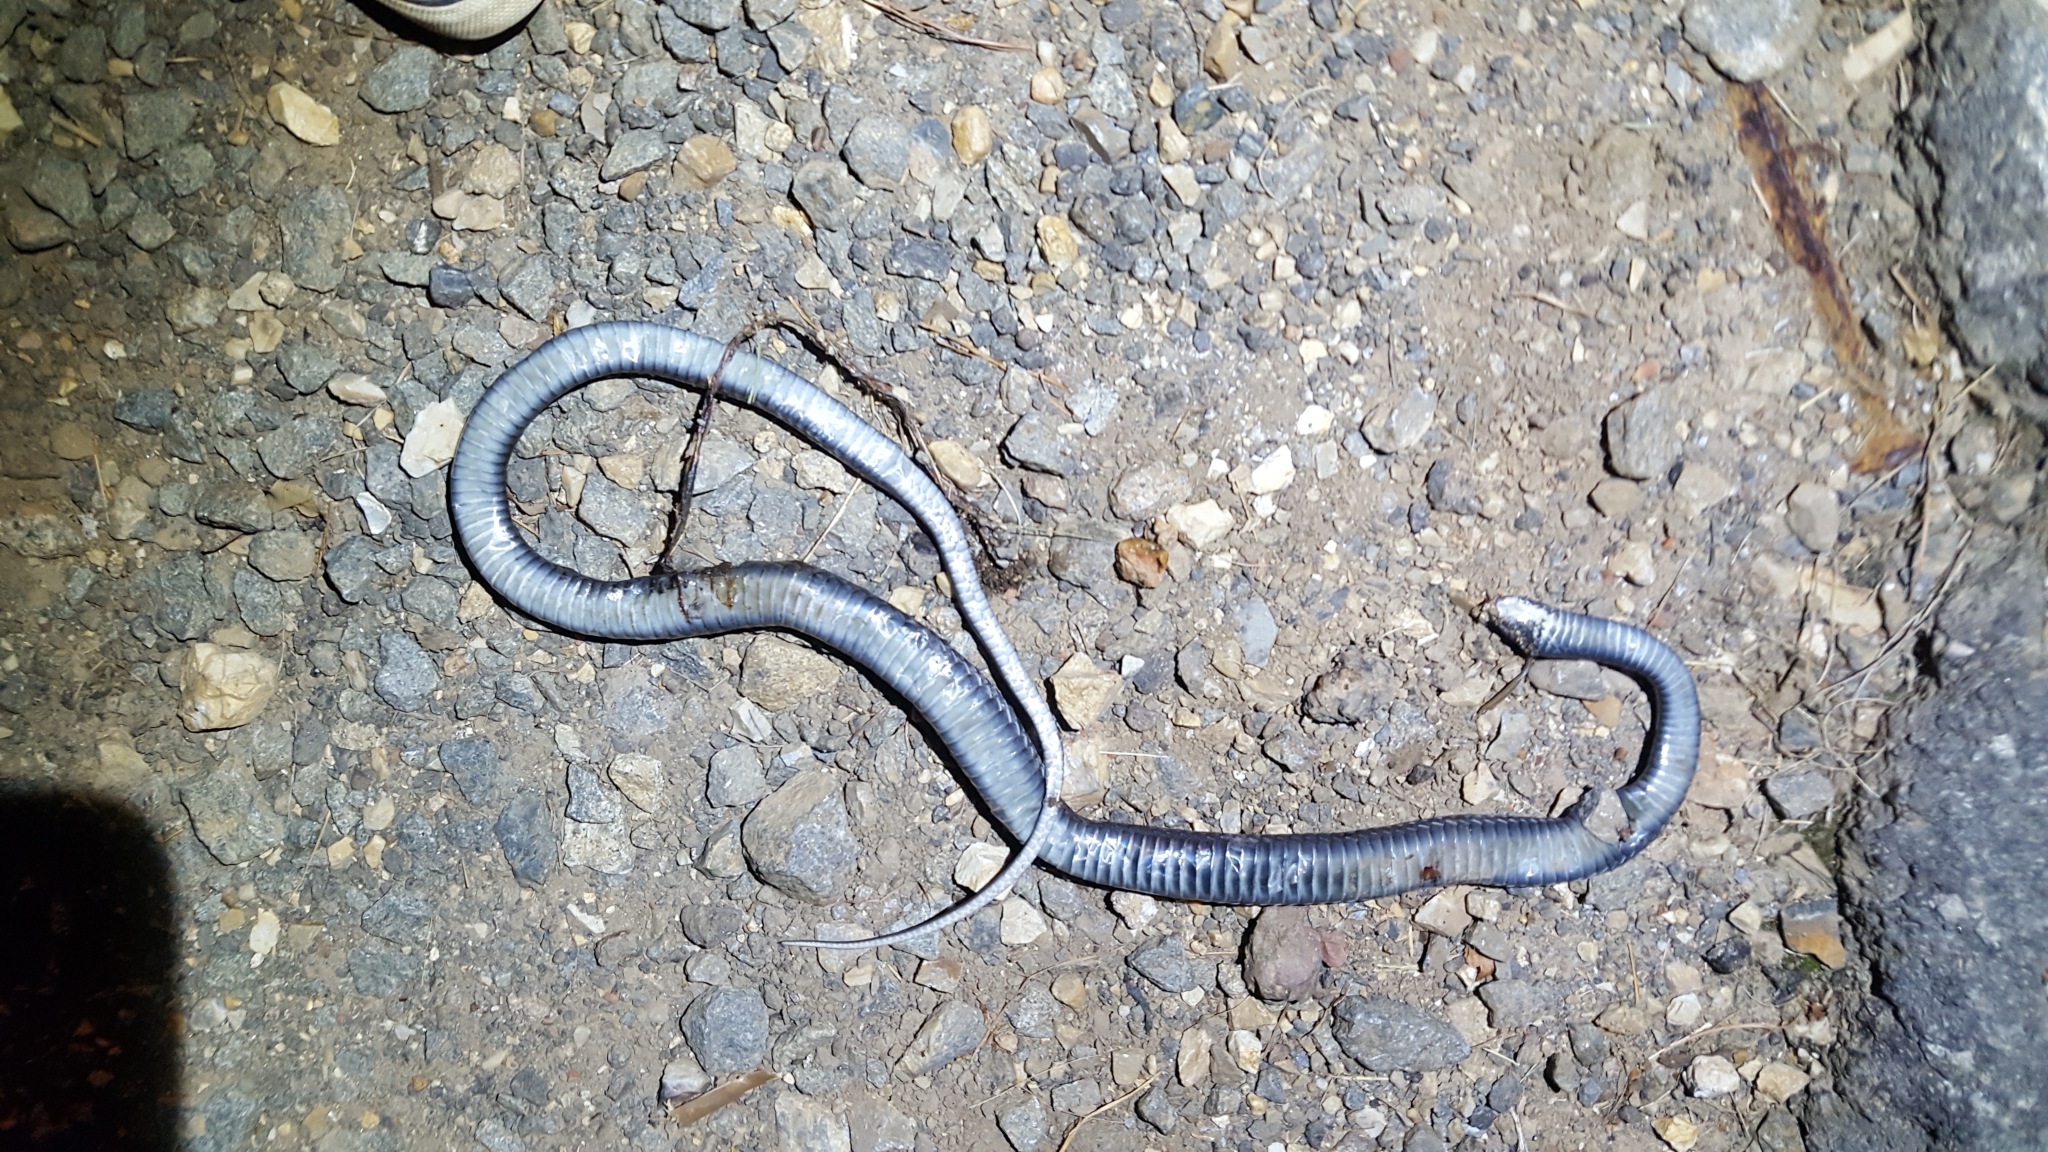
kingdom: Animalia
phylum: Chordata
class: Squamata
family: Colubridae
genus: Coluber
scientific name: Coluber constrictor
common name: Eastern racer
